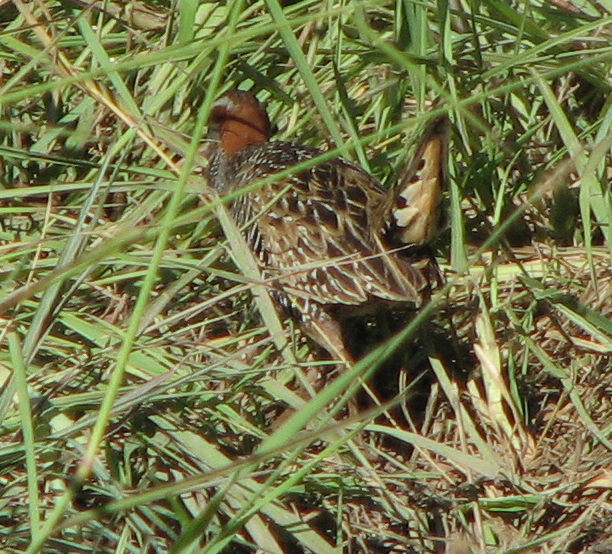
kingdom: Animalia
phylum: Chordata
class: Aves
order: Gruiformes
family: Rallidae
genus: Gallirallus
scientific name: Gallirallus philippensis
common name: Buff-banded rail
